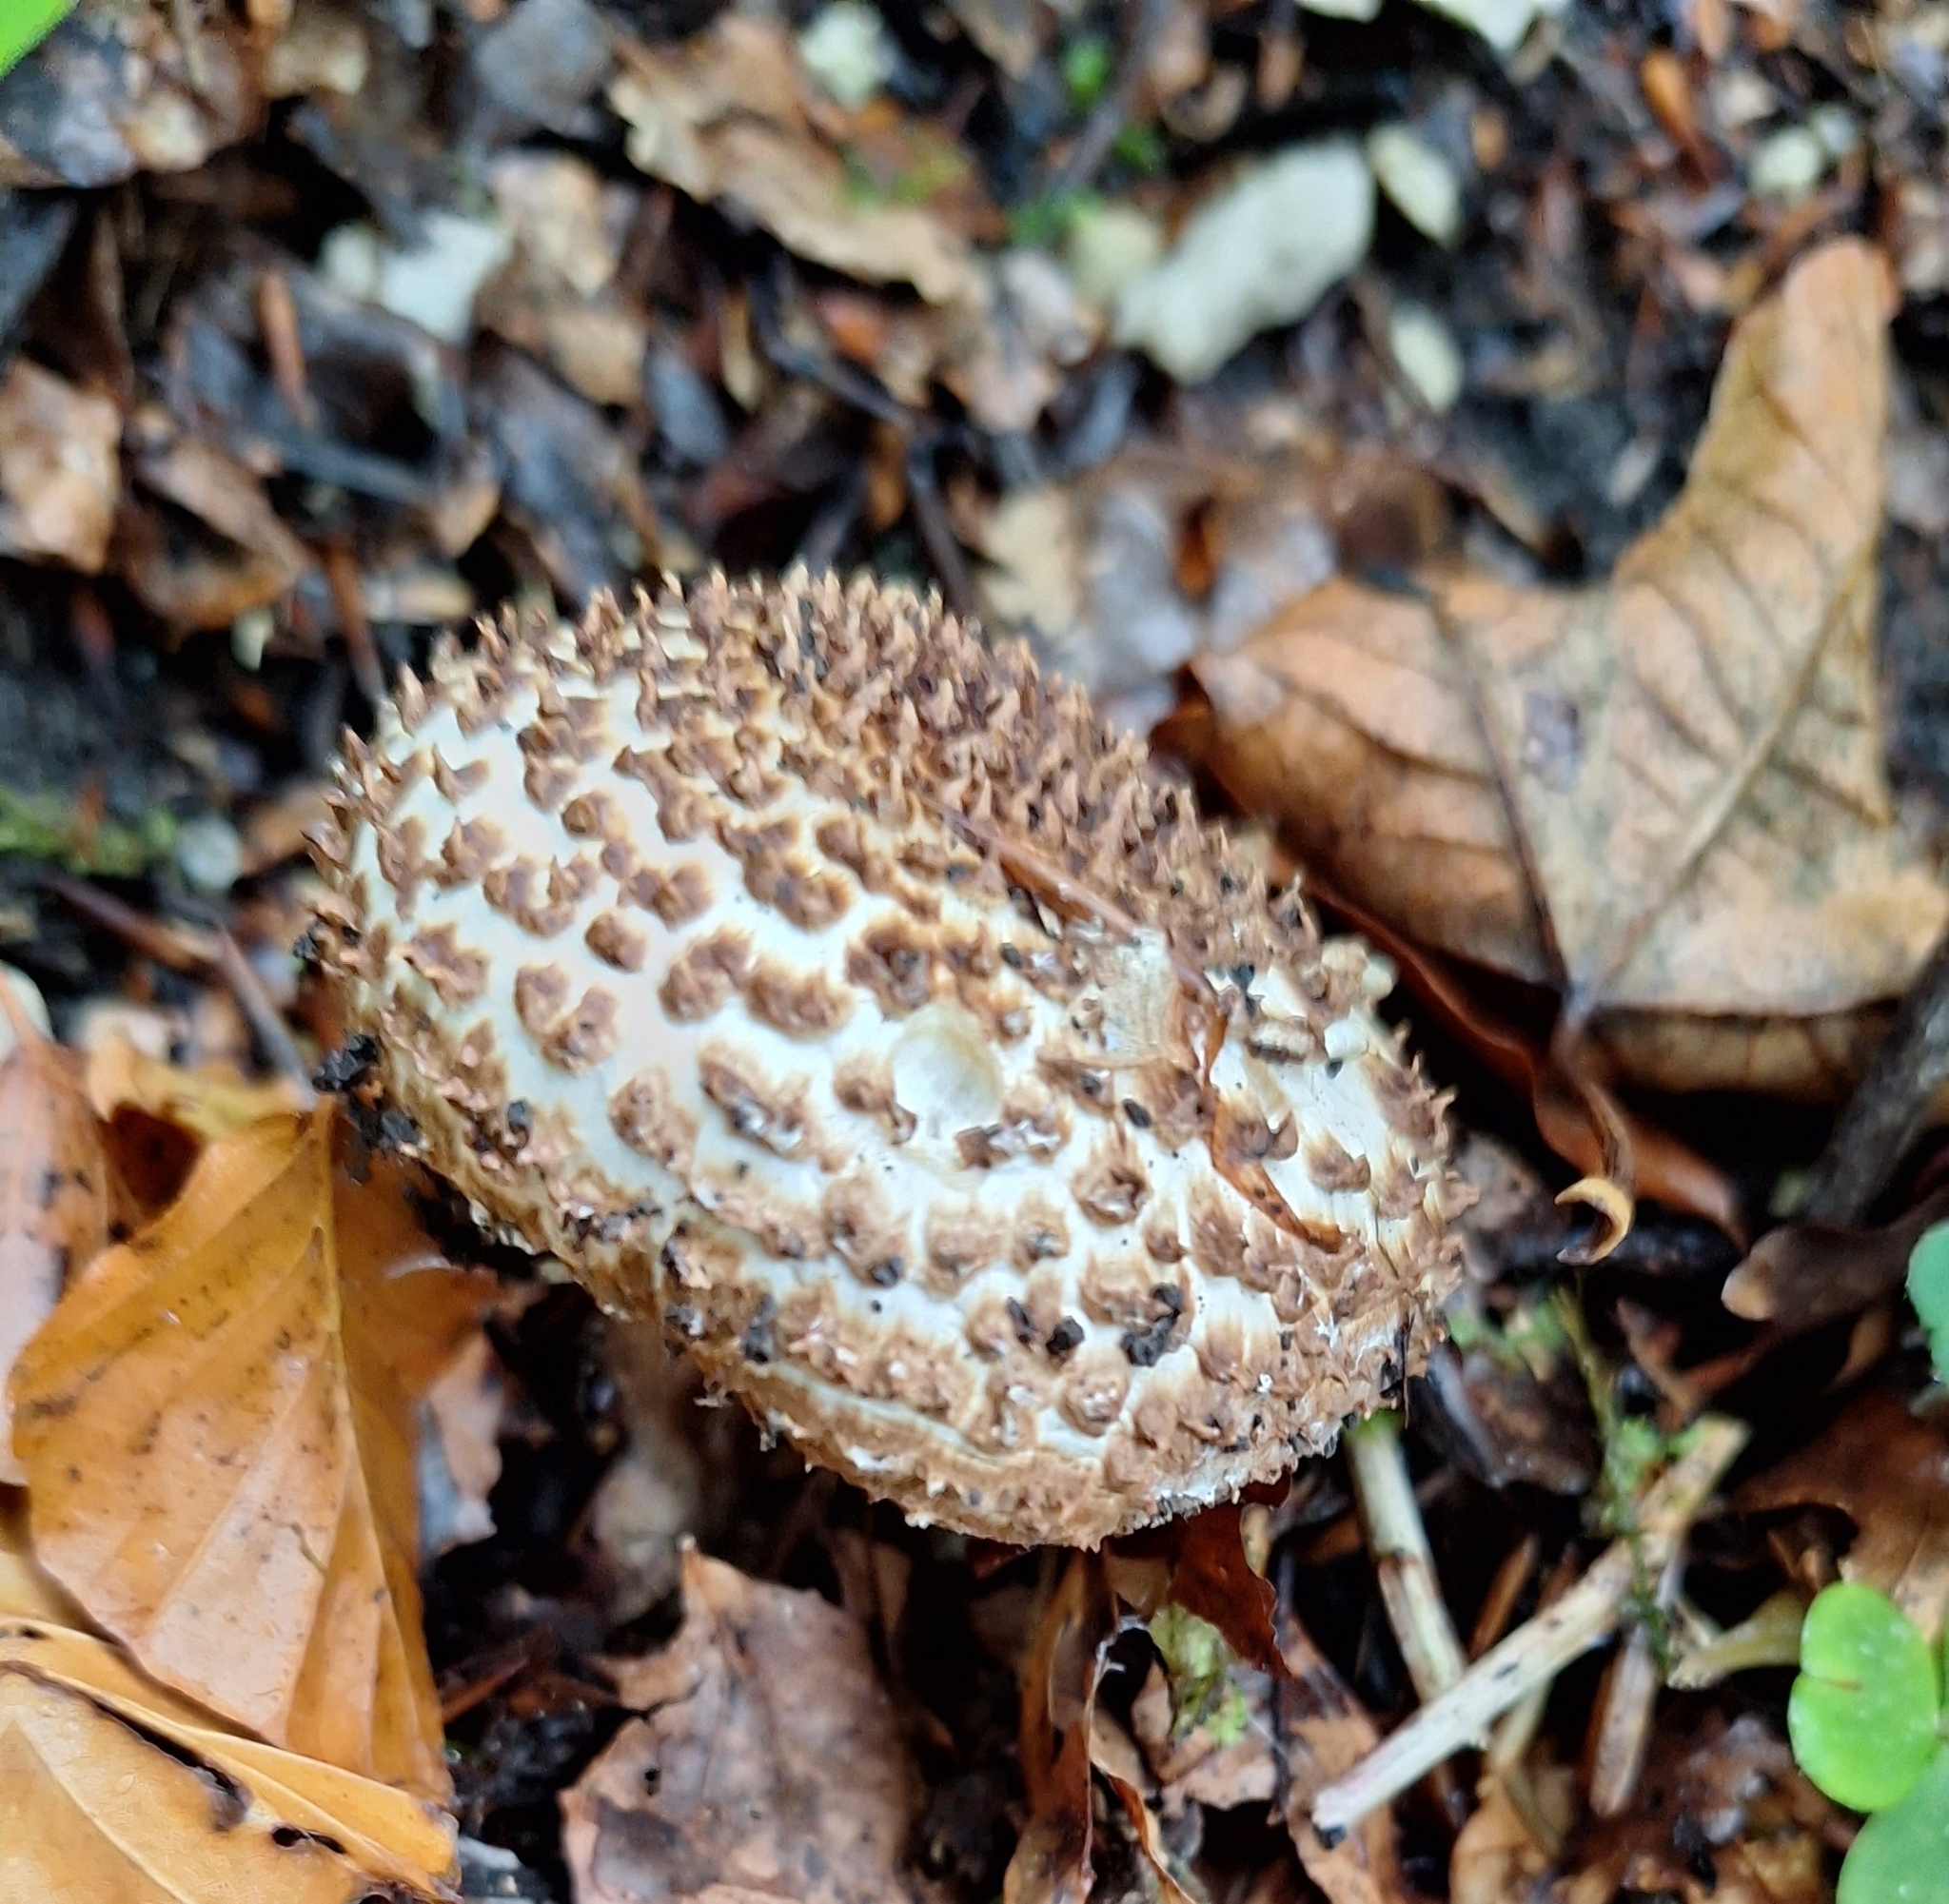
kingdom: Fungi
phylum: Basidiomycota
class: Agaricomycetes
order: Agaricales
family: Agaricaceae
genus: Echinoderma
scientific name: Echinoderma asperum
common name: Freckled dapperling
